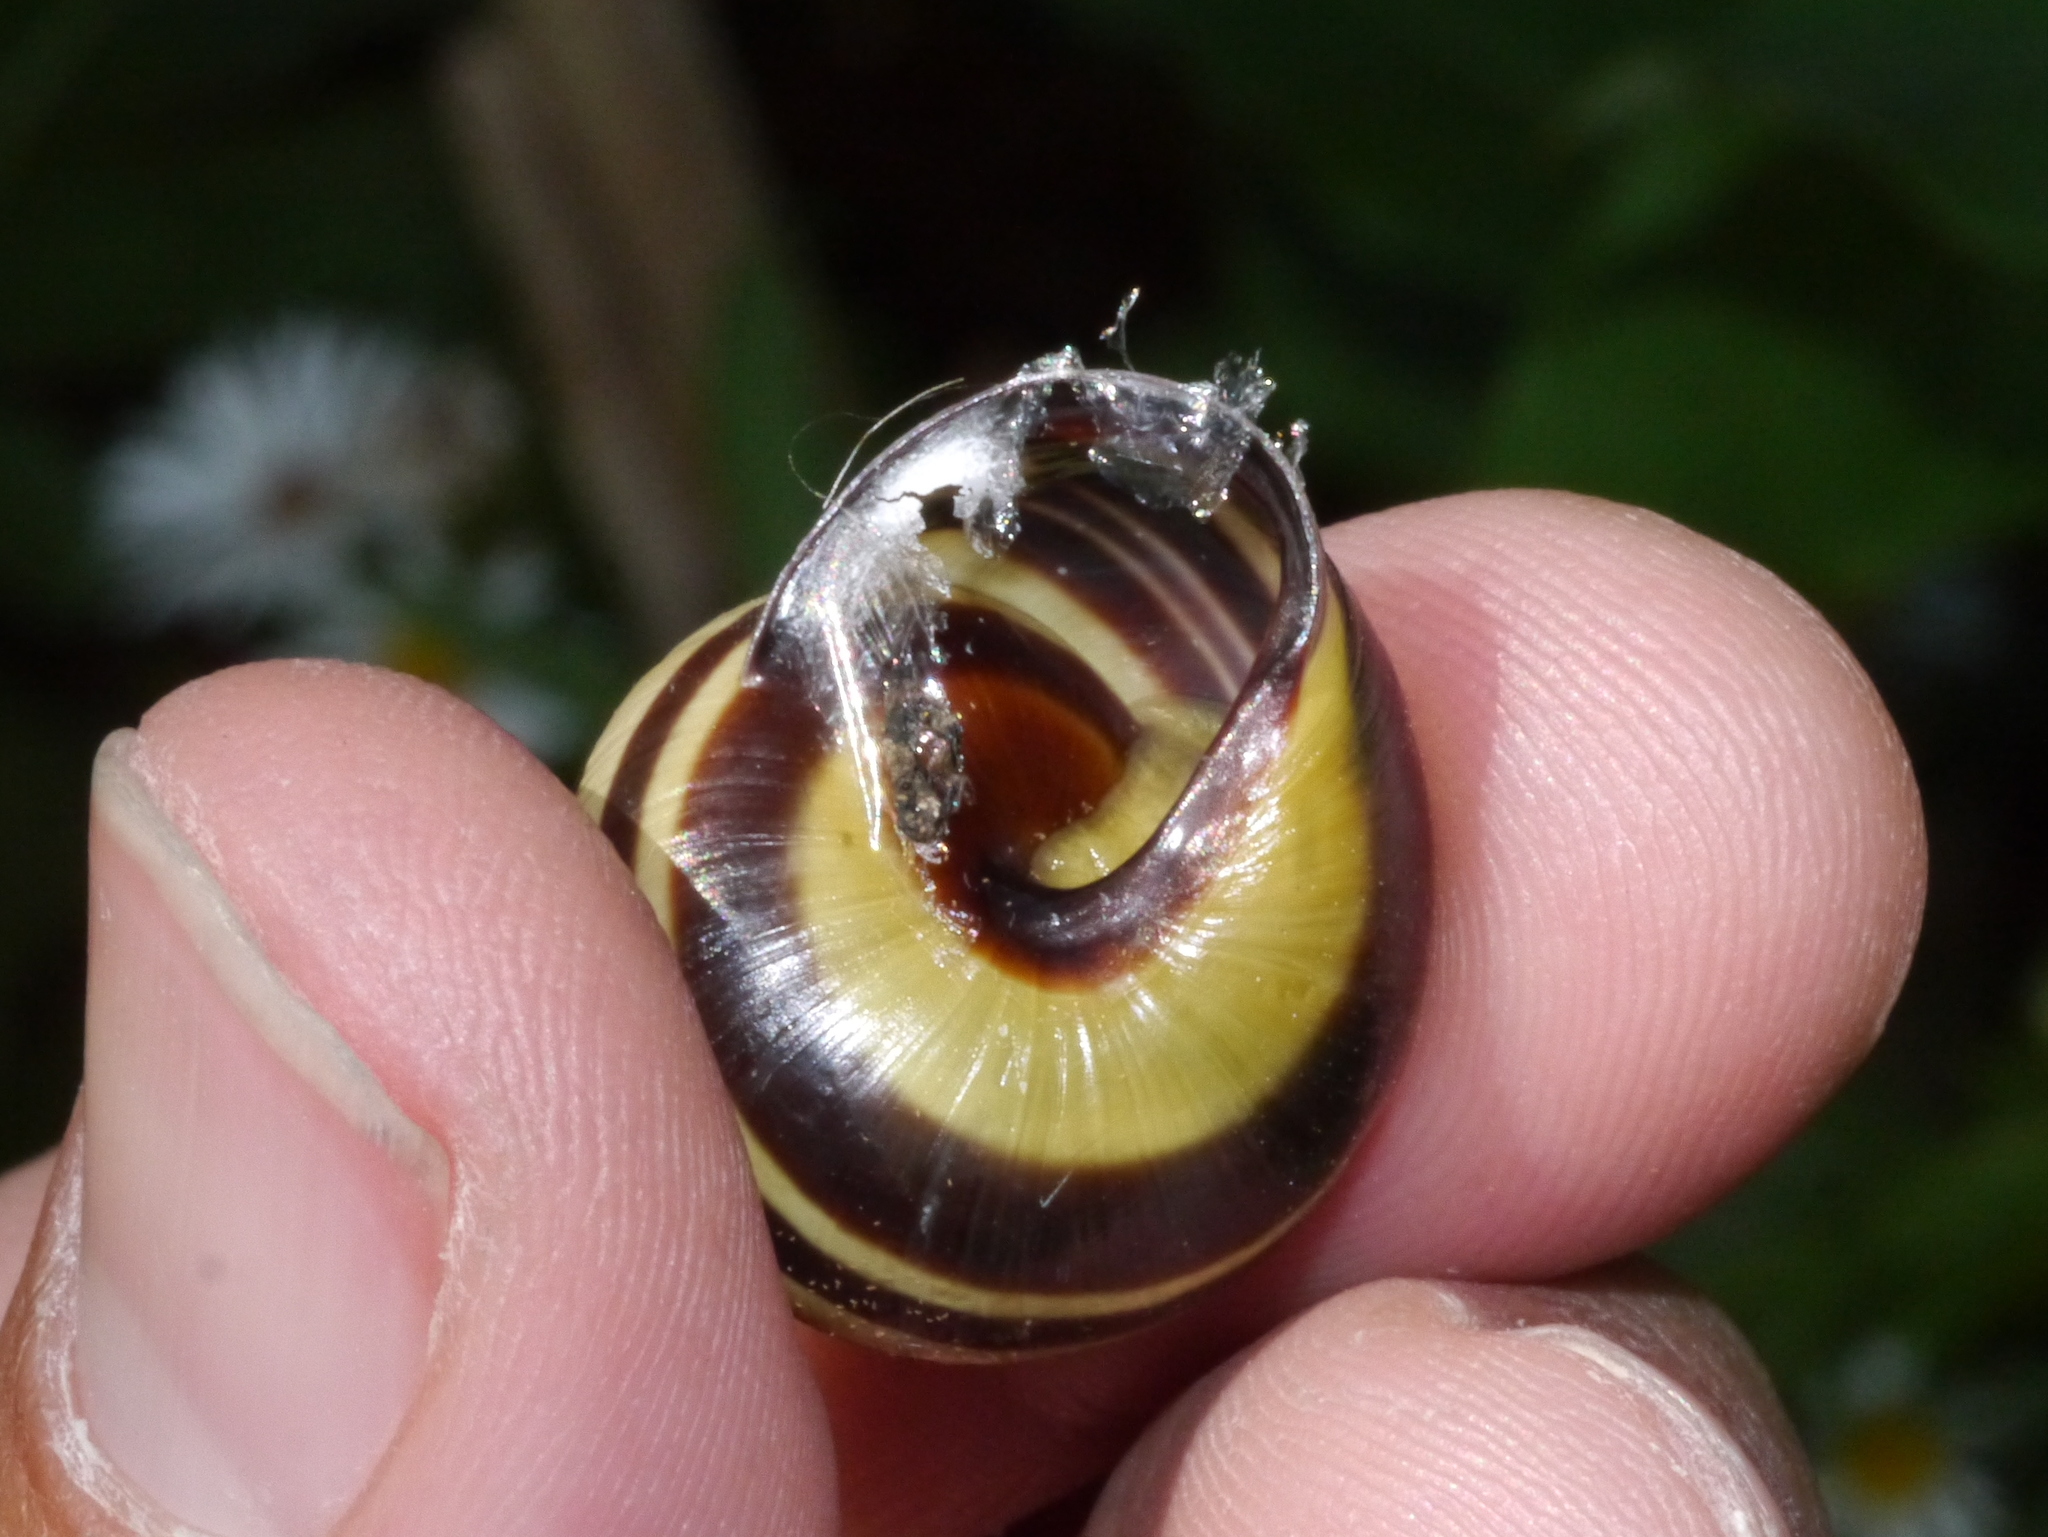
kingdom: Animalia
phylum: Mollusca
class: Gastropoda
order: Stylommatophora
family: Helicidae
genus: Cepaea
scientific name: Cepaea nemoralis
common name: Grovesnail
